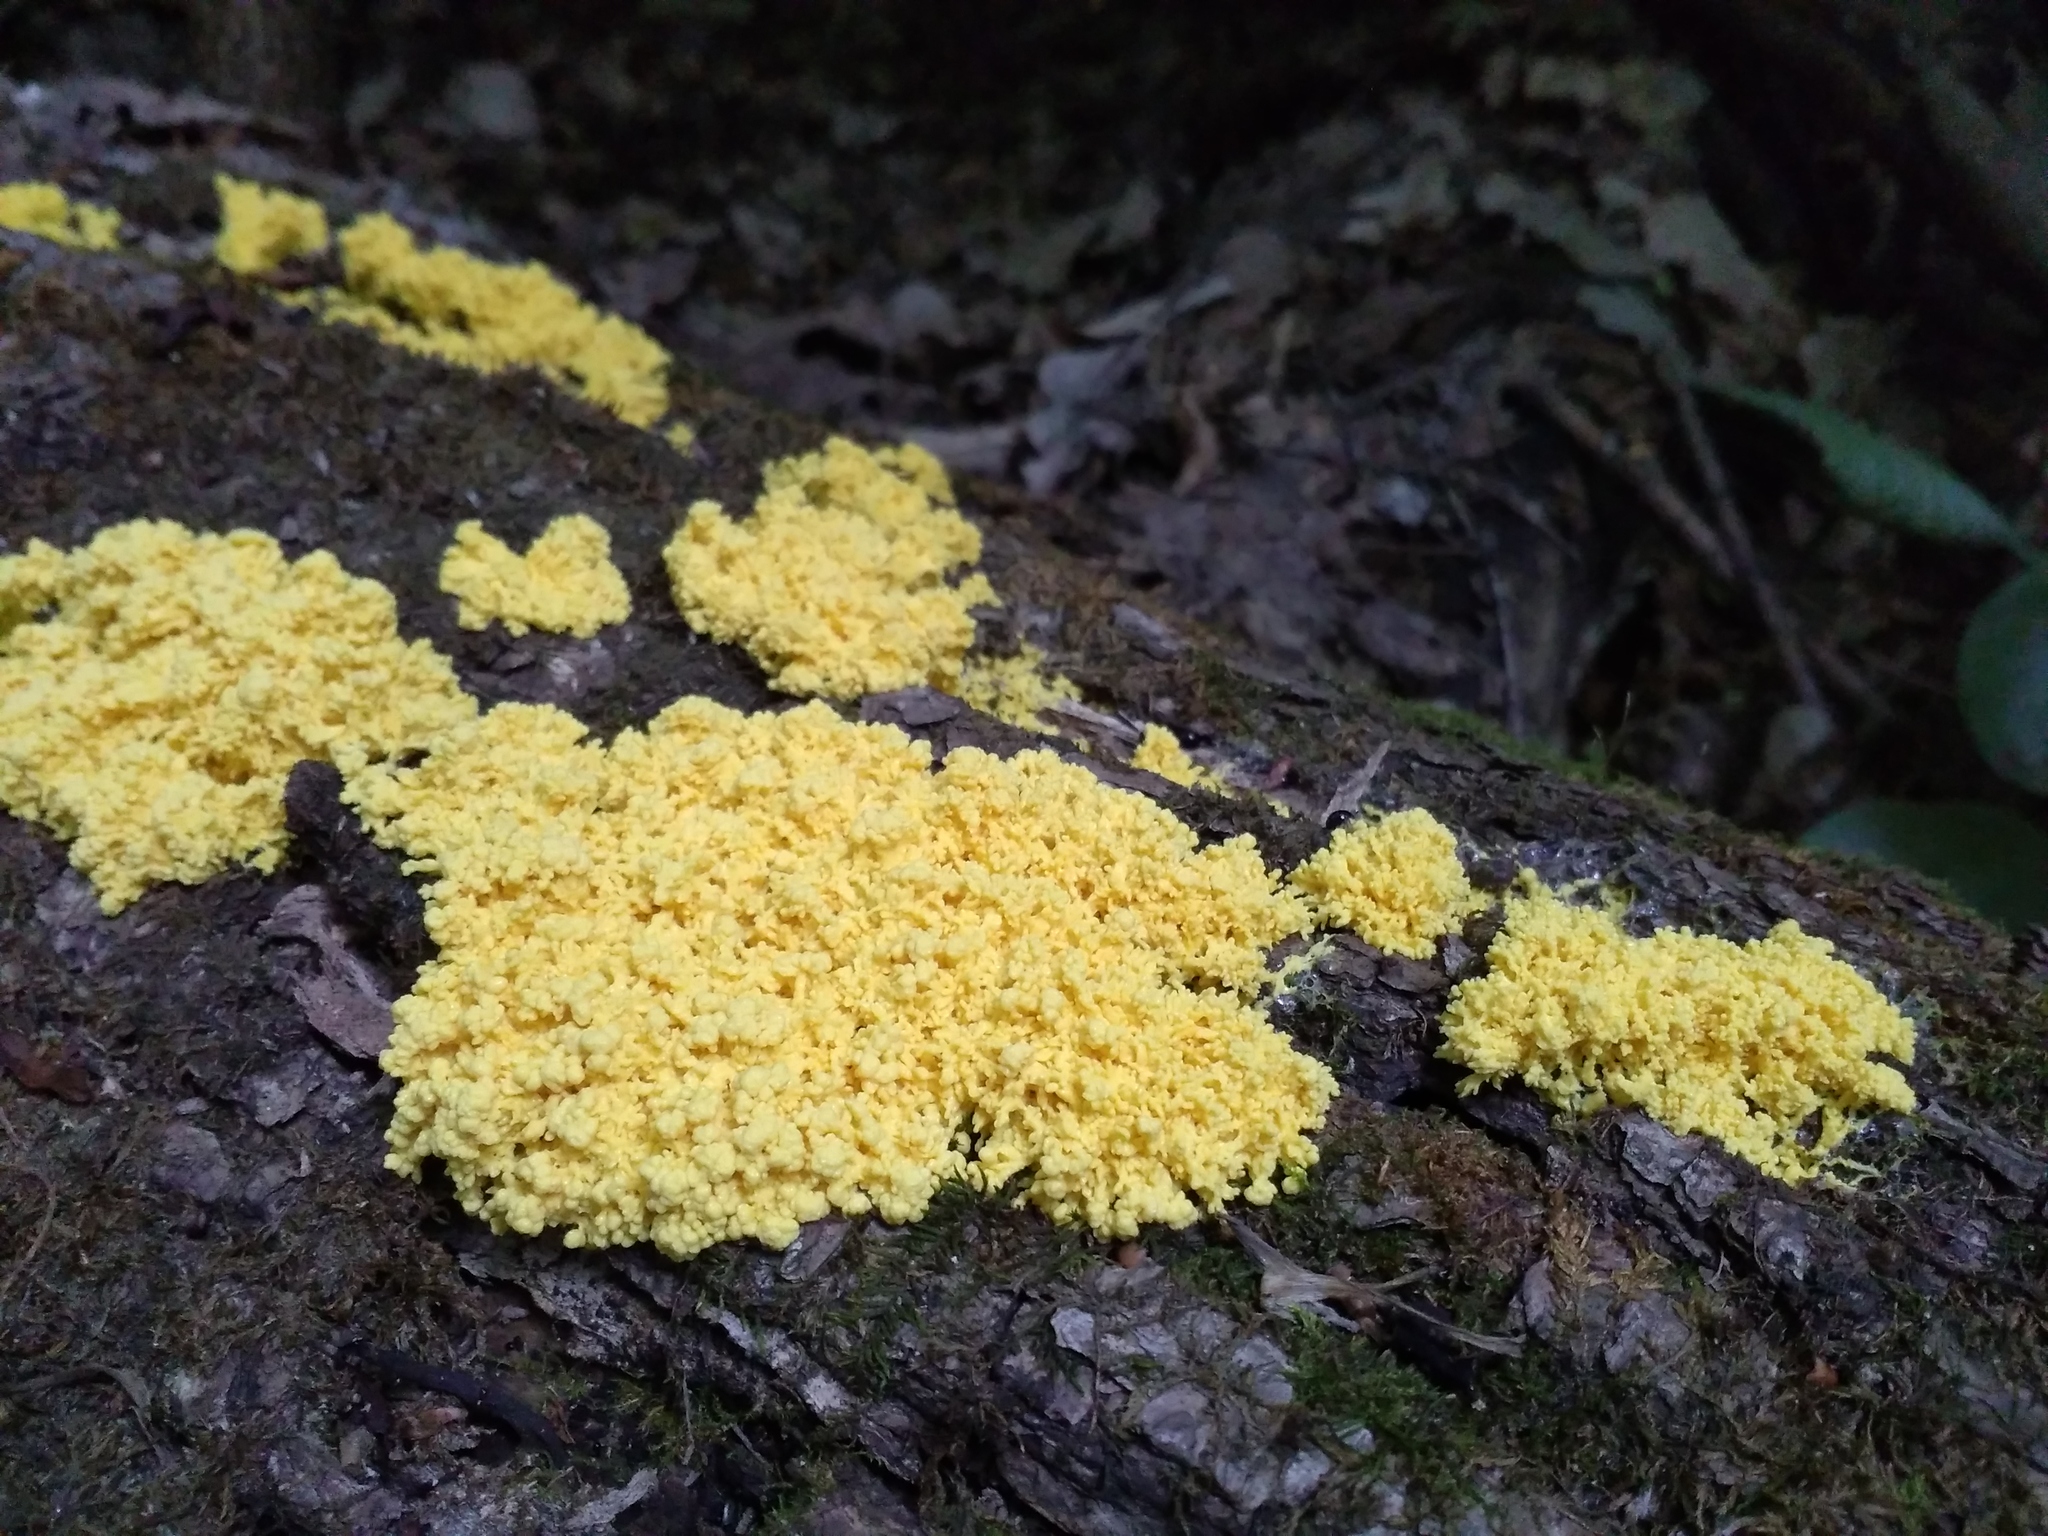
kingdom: Protozoa
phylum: Mycetozoa
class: Myxomycetes
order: Physarales
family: Physaraceae
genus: Fuligo
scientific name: Fuligo septica
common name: Dog vomit slime mold
